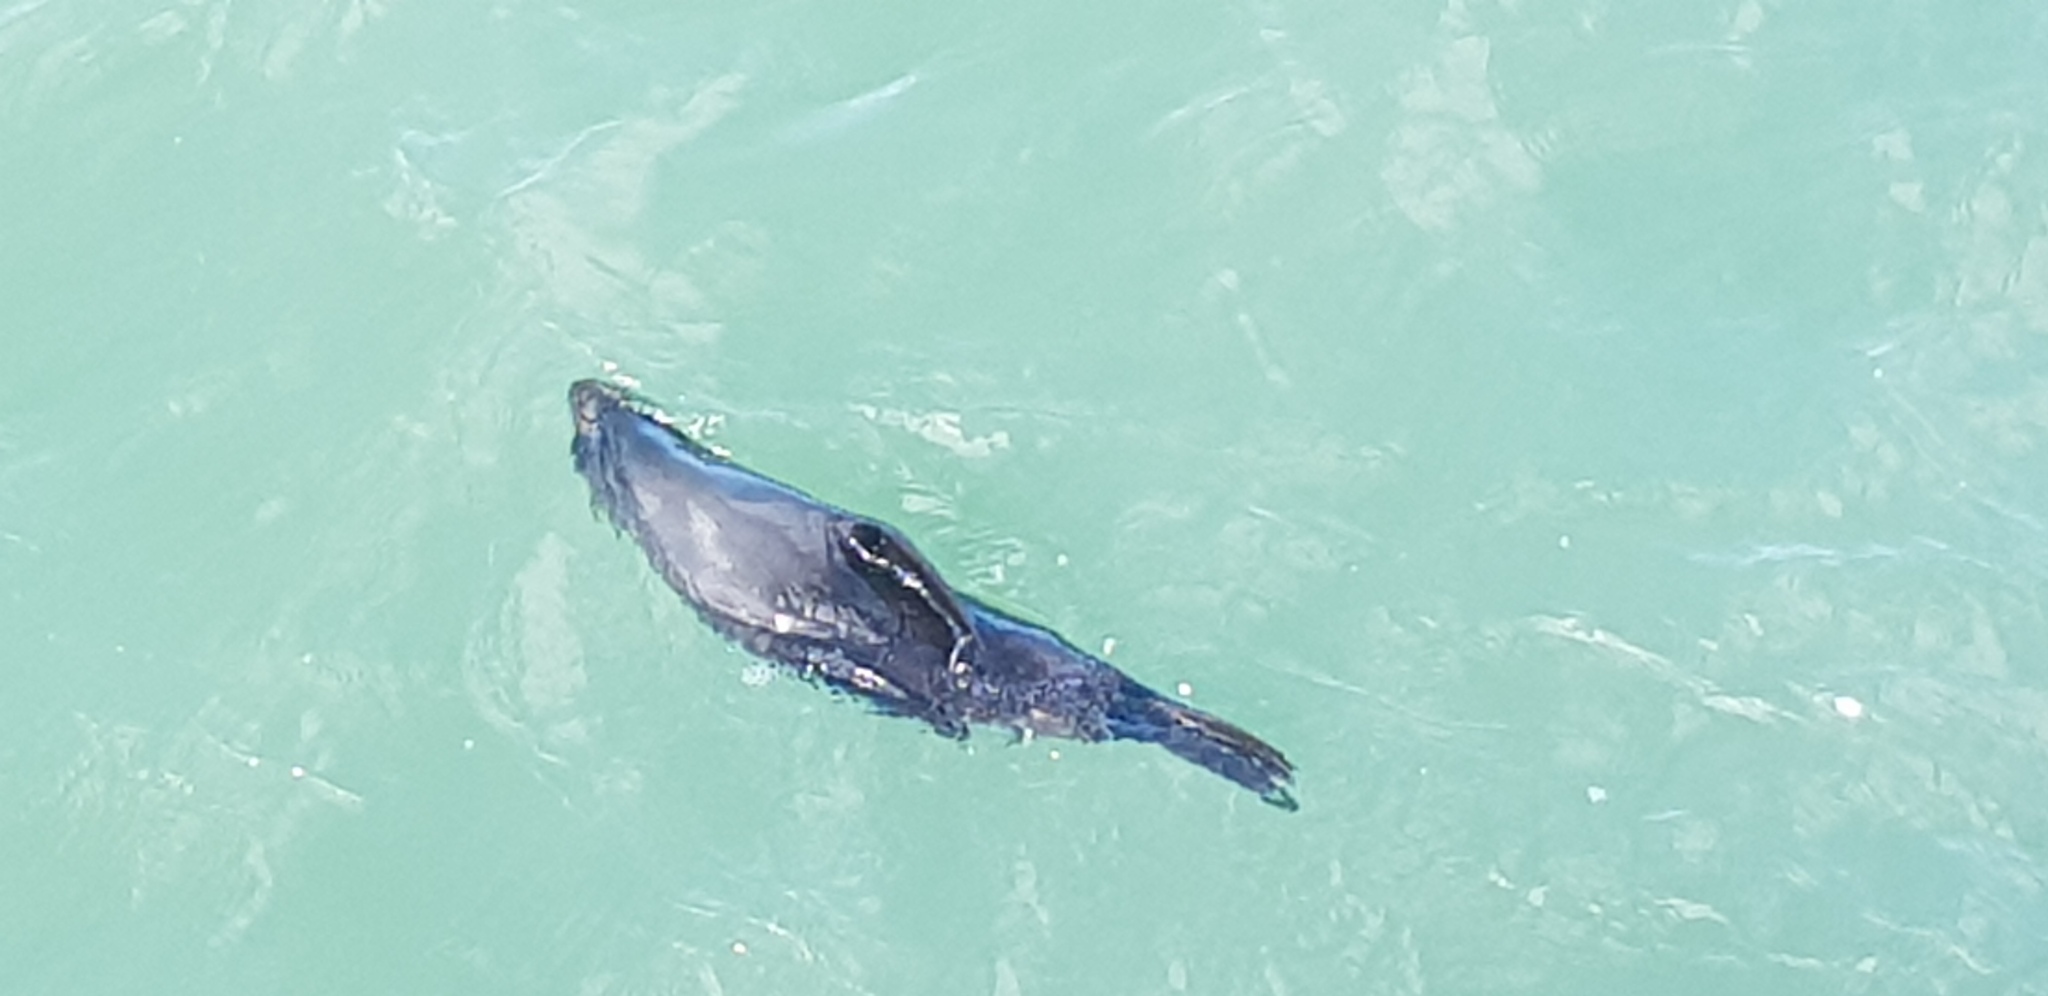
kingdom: Animalia
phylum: Chordata
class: Mammalia
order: Carnivora
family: Otariidae
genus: Arctocephalus
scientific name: Arctocephalus forsteri
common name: New zealand fur seal
